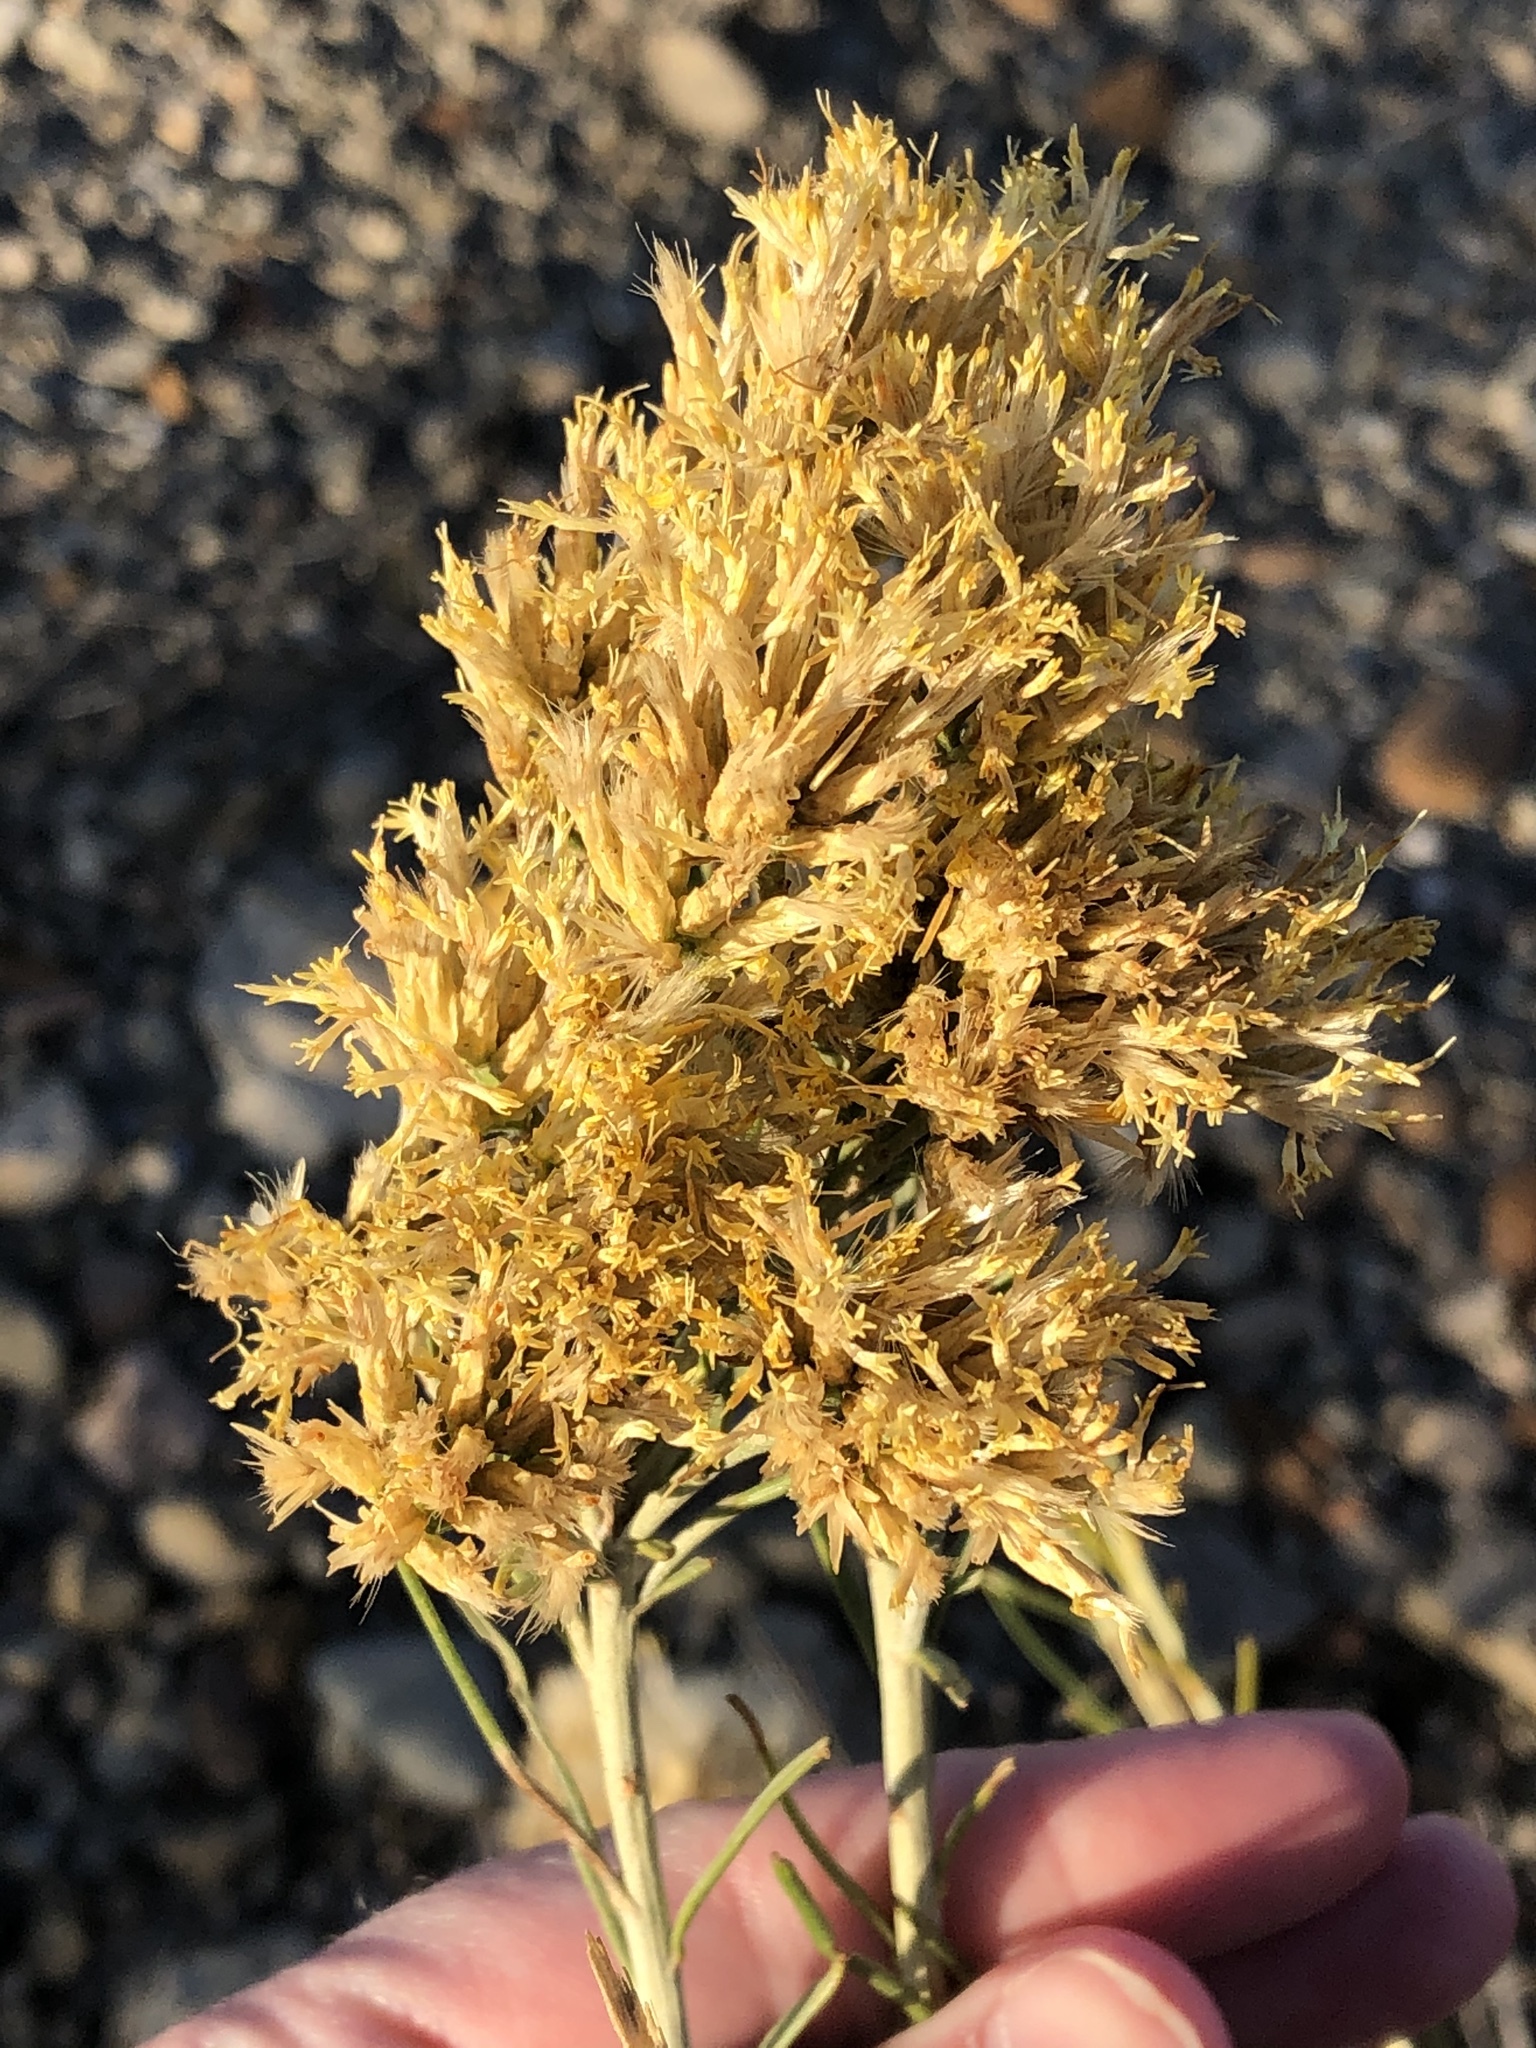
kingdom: Plantae
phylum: Tracheophyta
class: Magnoliopsida
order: Asterales
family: Asteraceae
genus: Ericameria
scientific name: Ericameria nauseosa
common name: Rubber rabbitbrush
